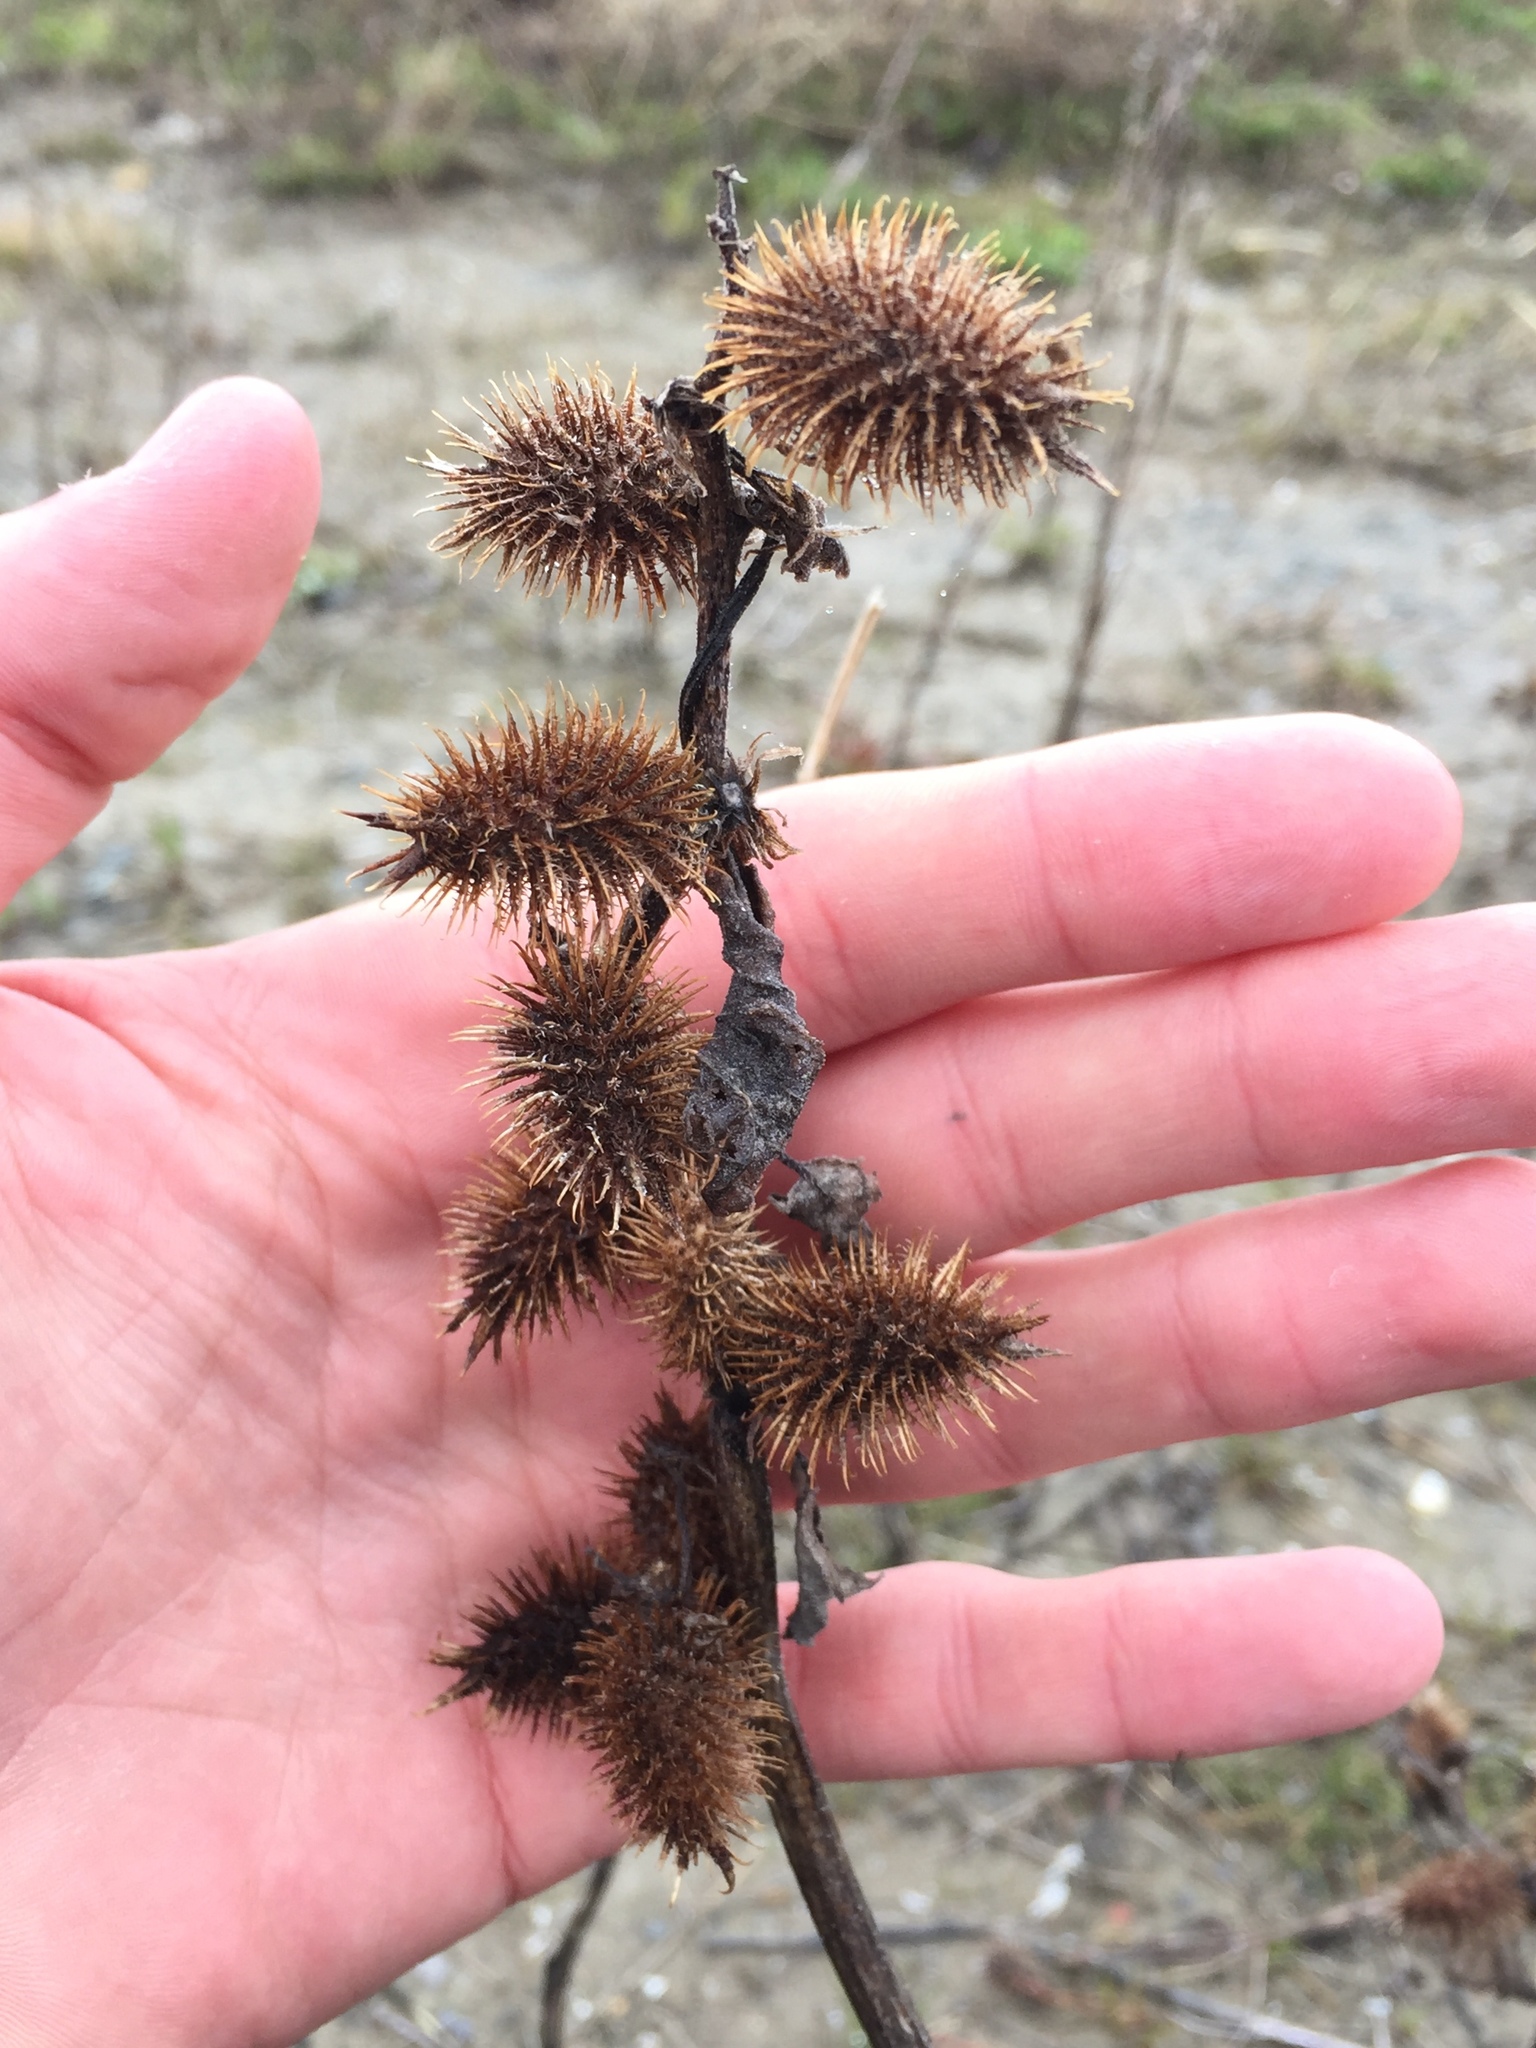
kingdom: Plantae
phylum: Tracheophyta
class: Magnoliopsida
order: Asterales
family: Asteraceae
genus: Xanthium
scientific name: Xanthium strumarium
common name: Rough cocklebur
